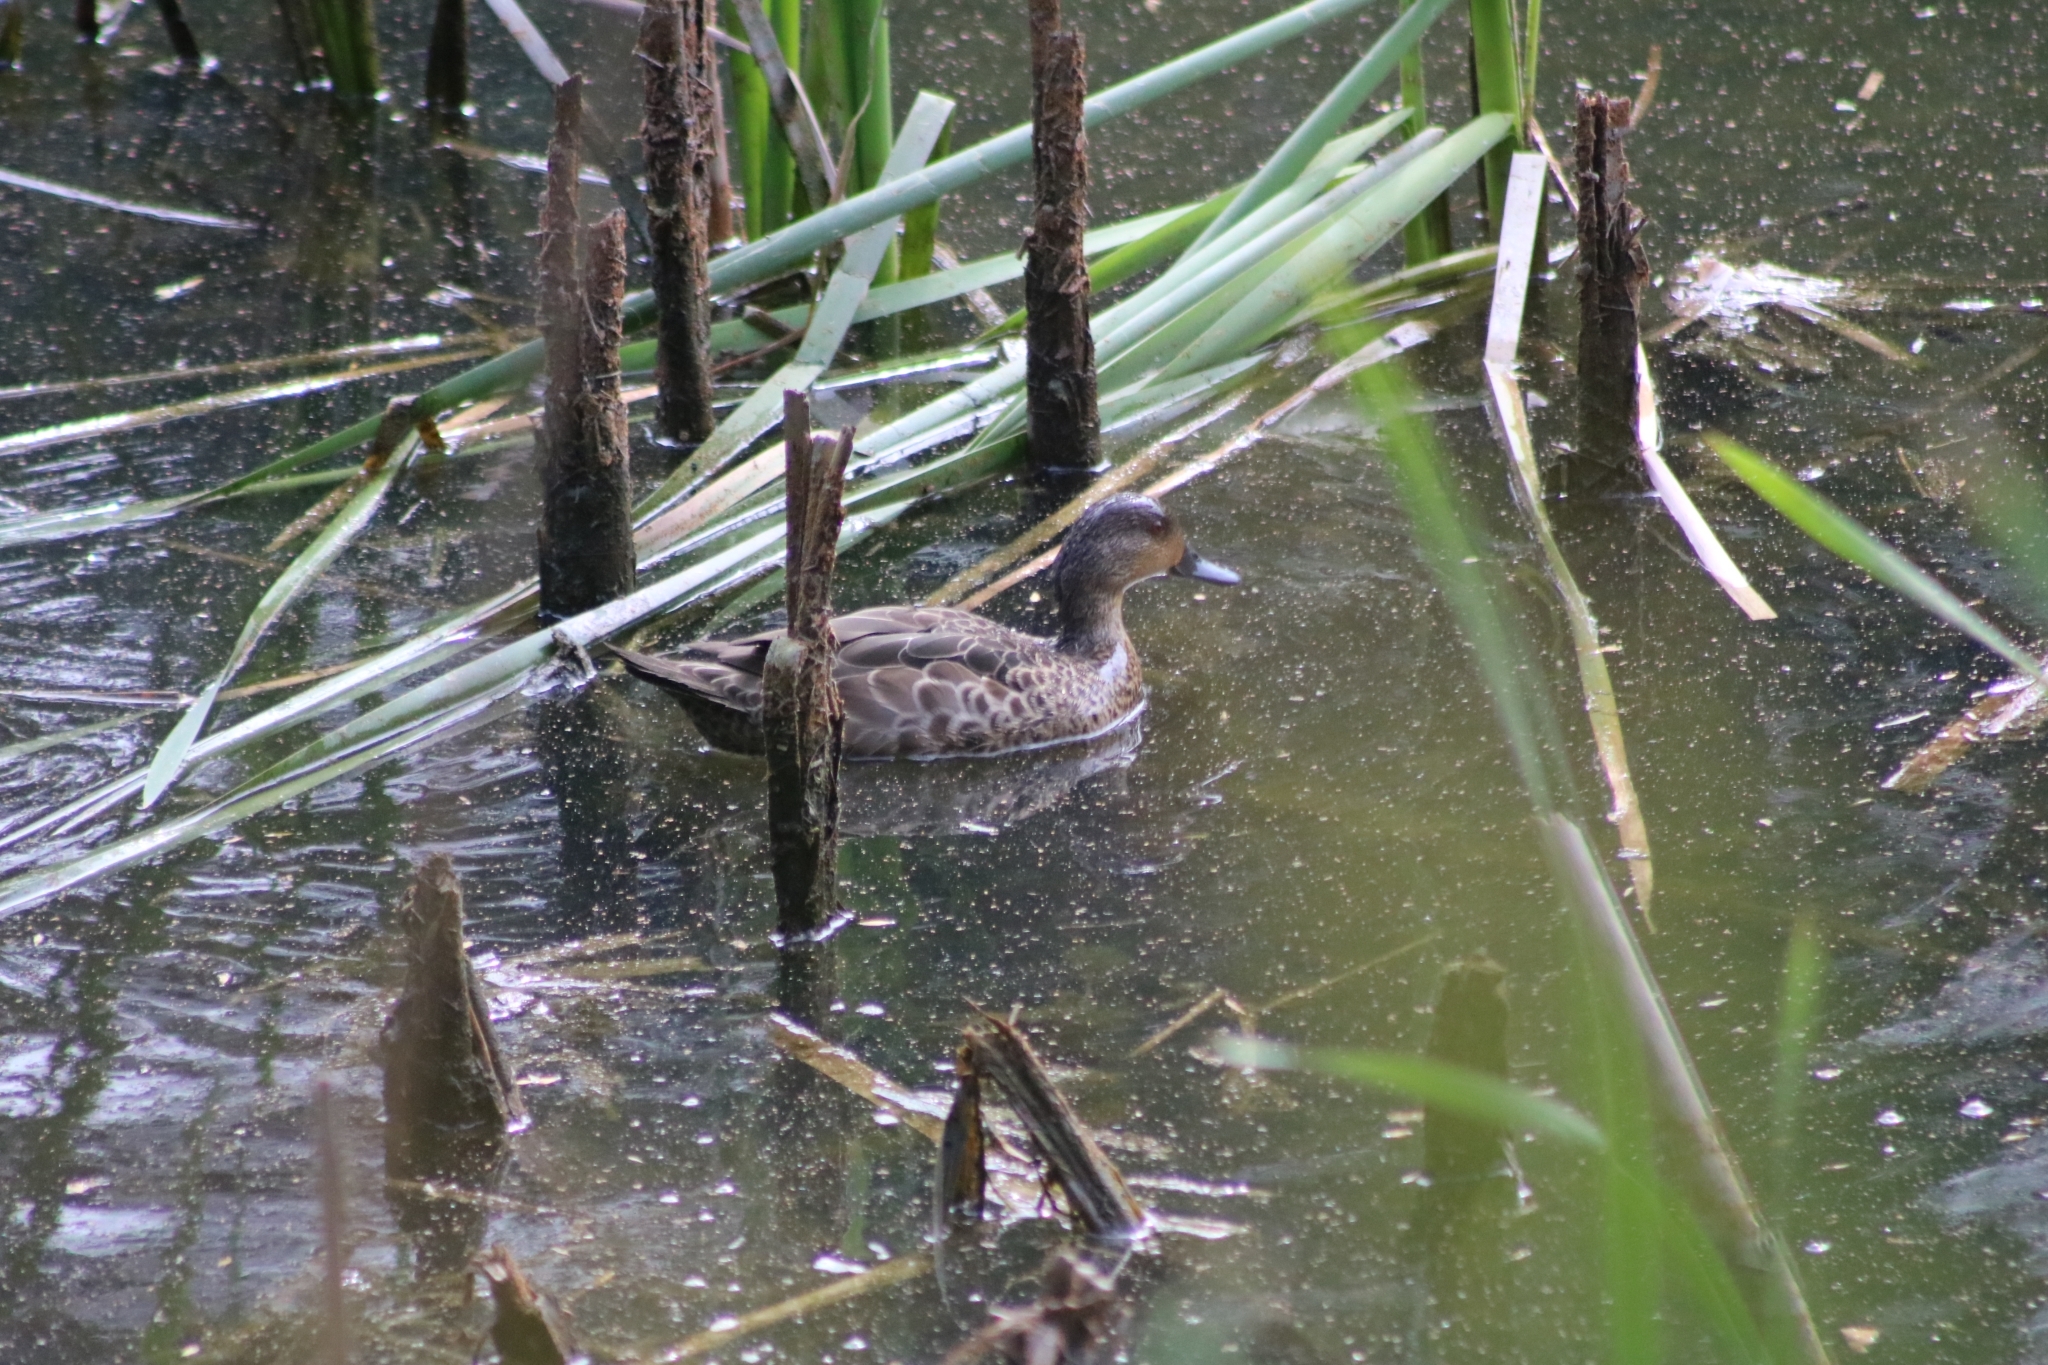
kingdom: Animalia
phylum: Chordata
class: Aves
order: Anseriformes
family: Anatidae
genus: Anas
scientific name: Anas castanea
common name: Chestnut teal
